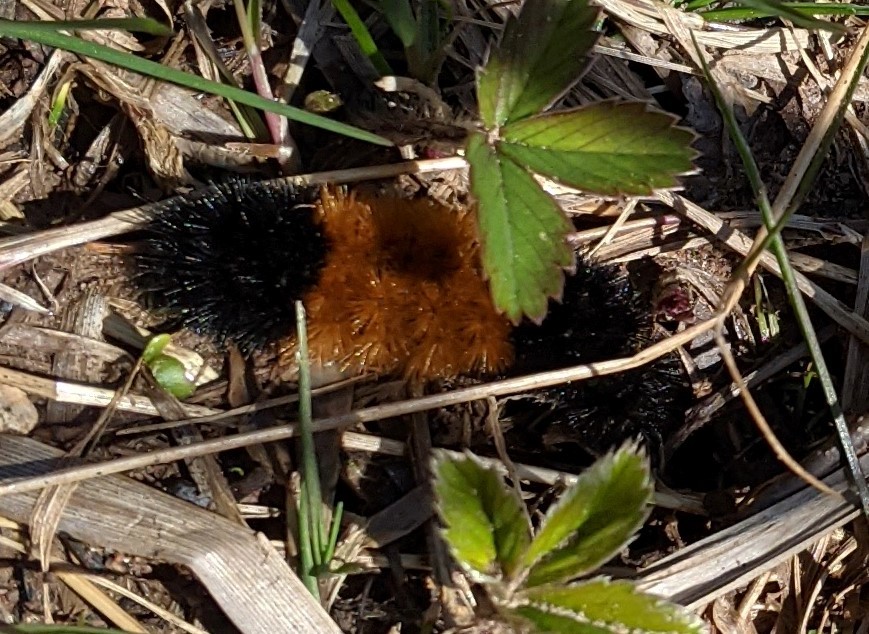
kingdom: Animalia
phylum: Arthropoda
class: Insecta
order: Lepidoptera
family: Erebidae
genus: Pyrrharctia
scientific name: Pyrrharctia isabella
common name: Isabella tiger moth
